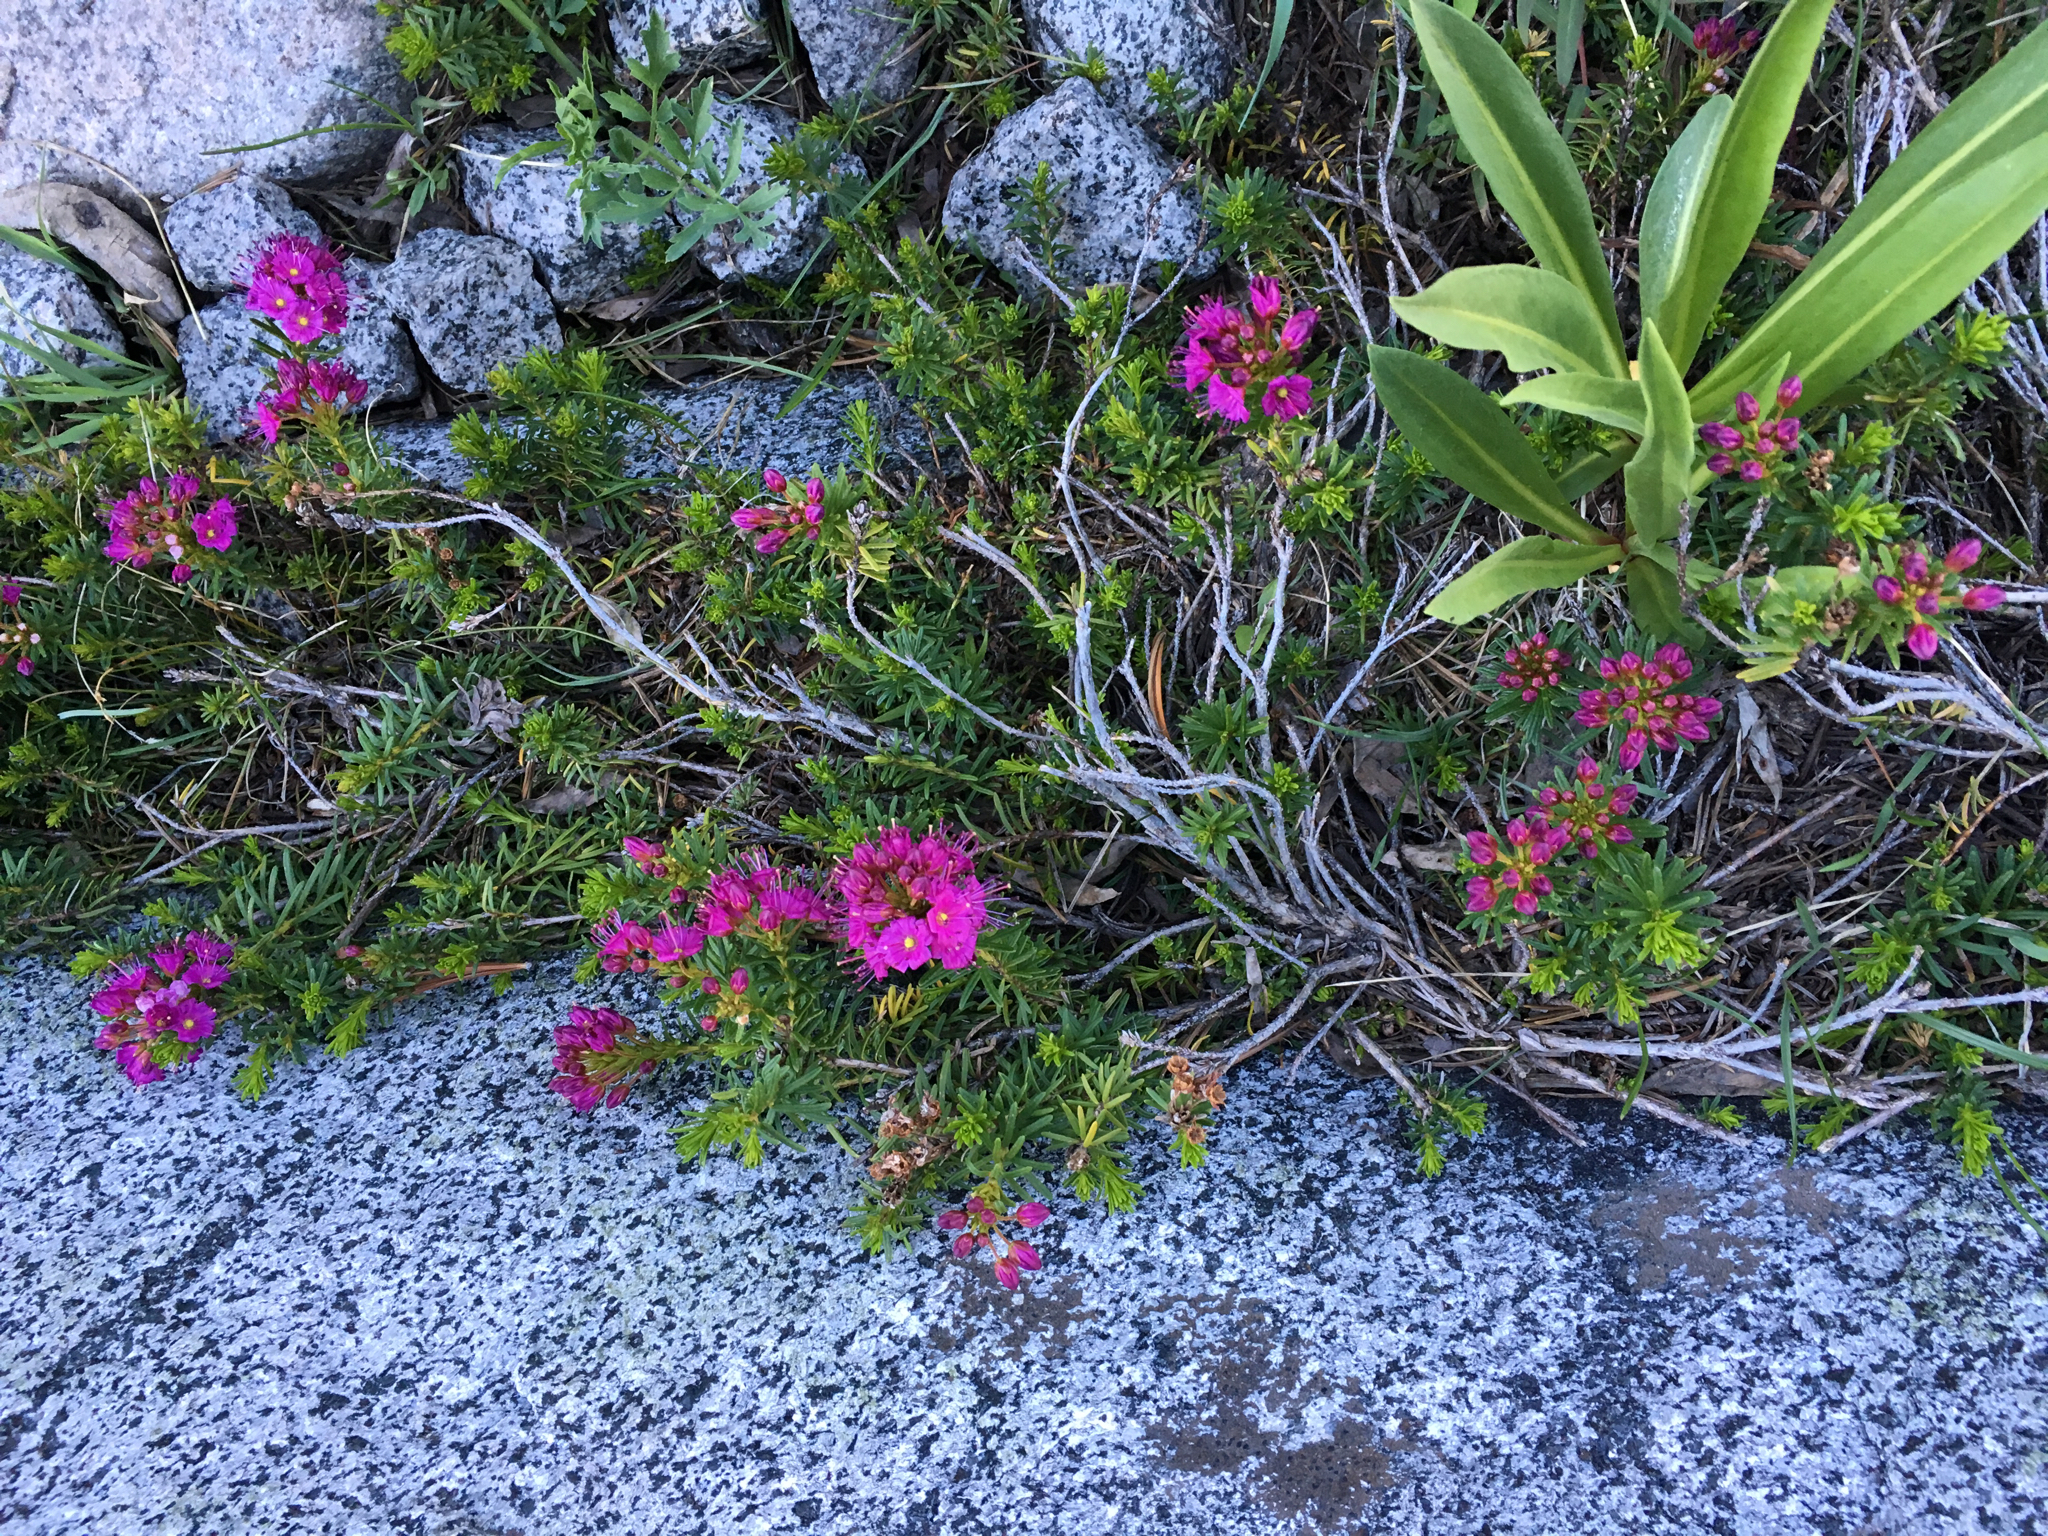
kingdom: Plantae
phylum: Tracheophyta
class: Magnoliopsida
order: Ericales
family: Ericaceae
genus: Phyllodoce
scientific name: Phyllodoce breweri
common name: Brewer's mountain-heather
